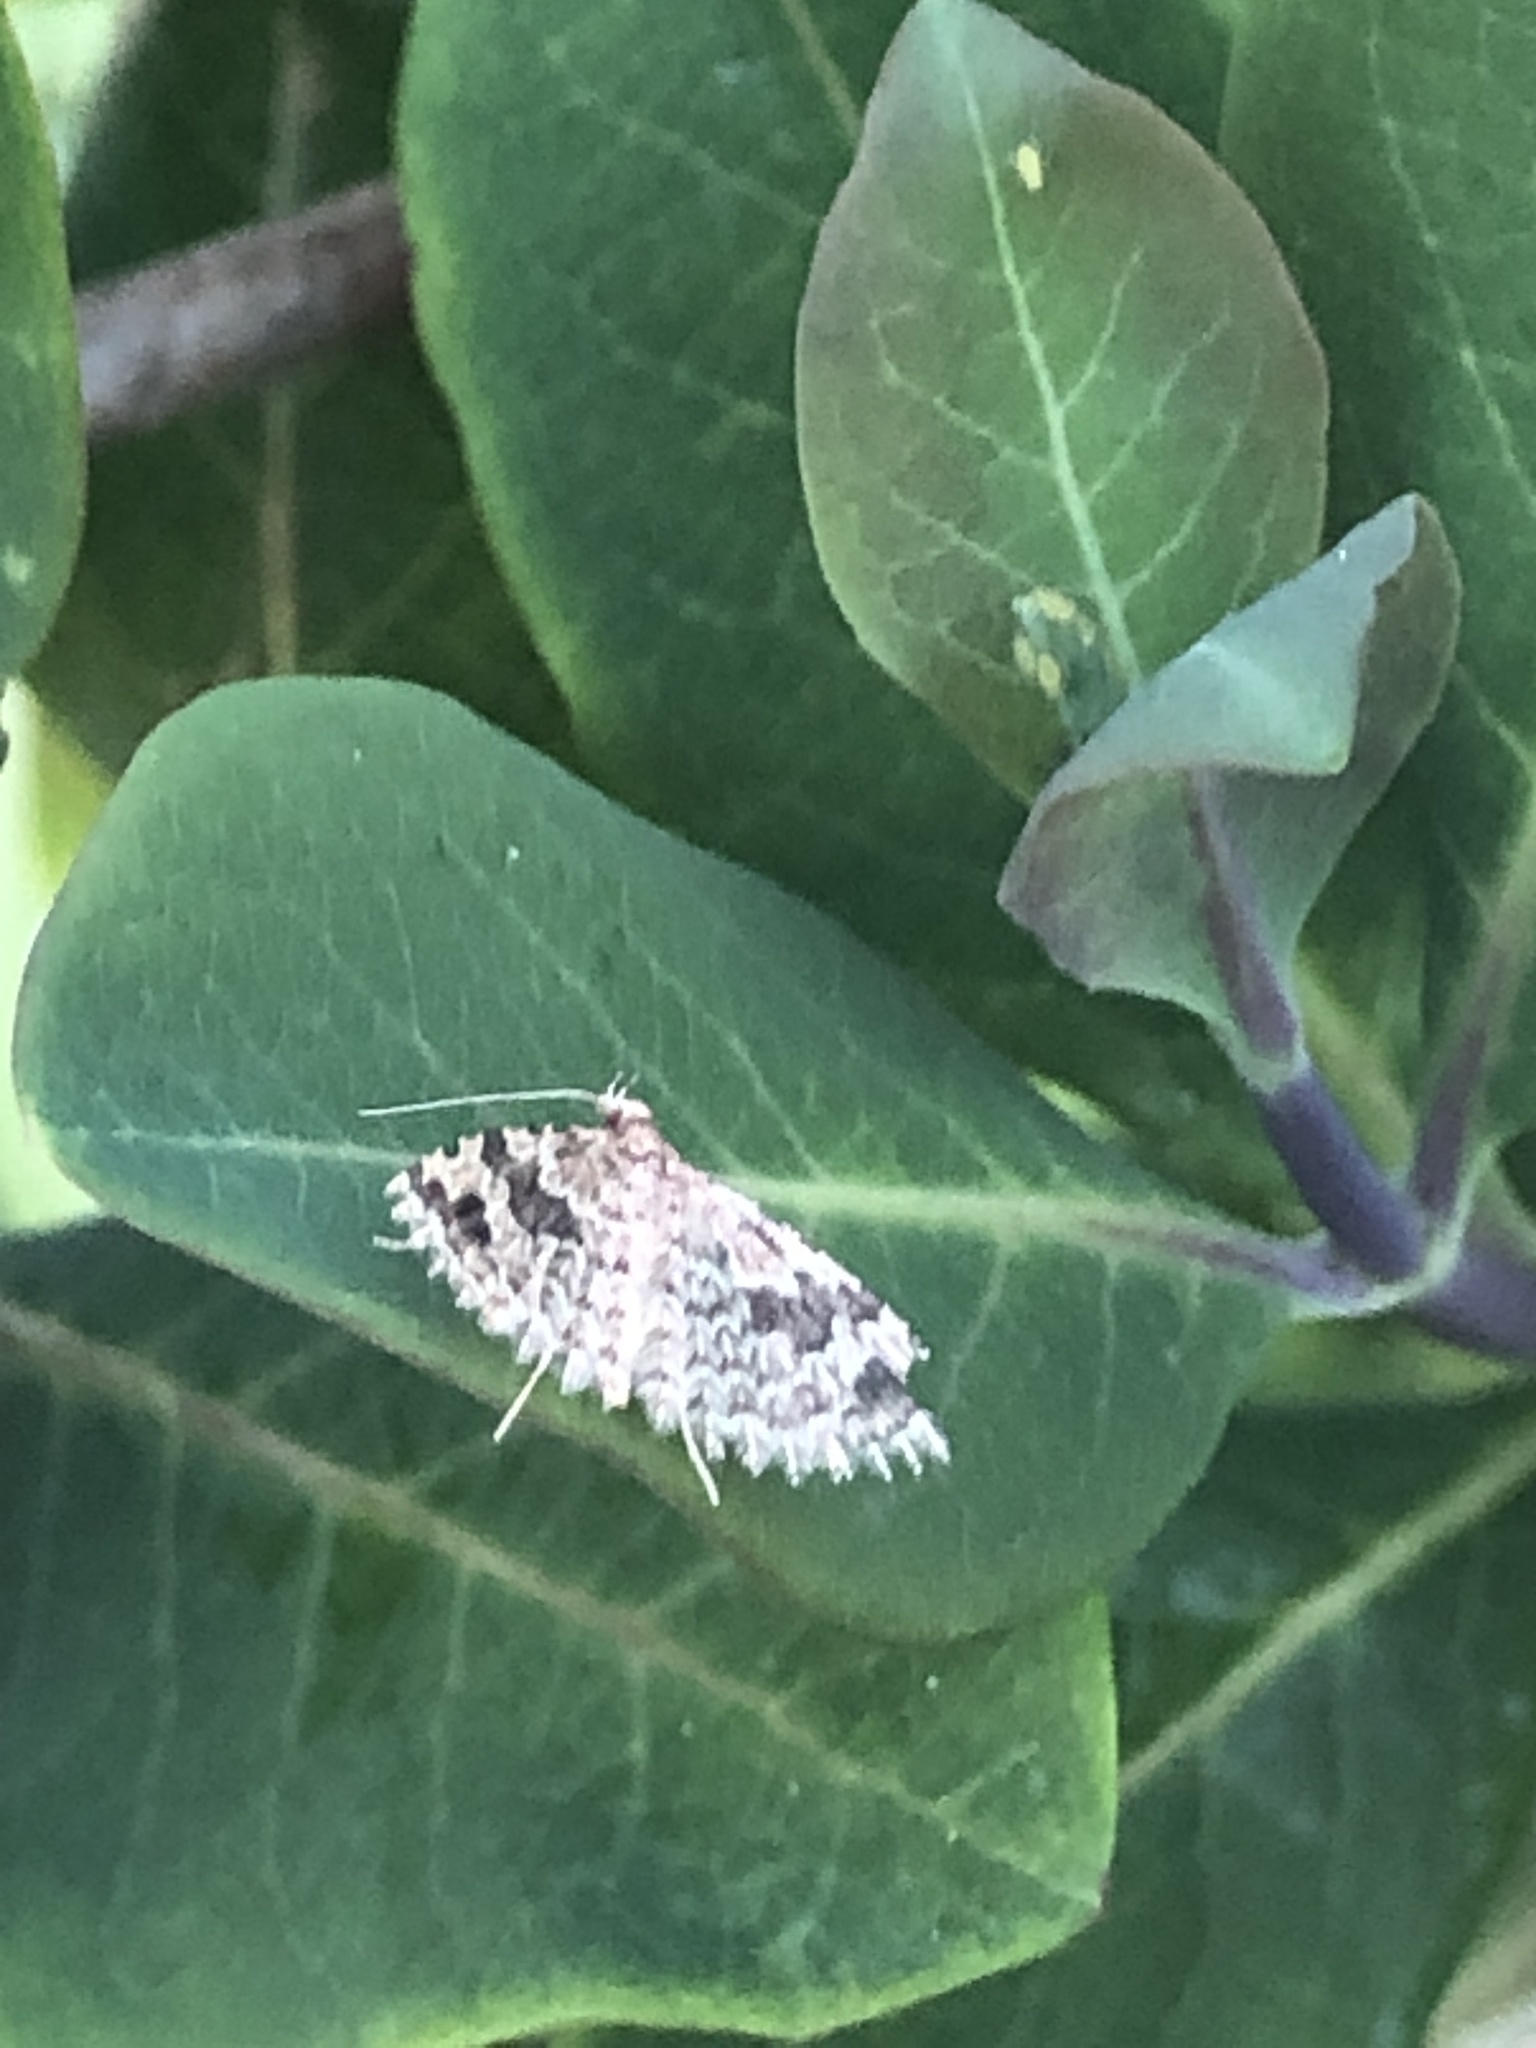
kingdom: Animalia
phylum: Arthropoda
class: Insecta
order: Lepidoptera
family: Alucitidae
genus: Alucita
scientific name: Alucita hexadactyla
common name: Twenty-plume moth
